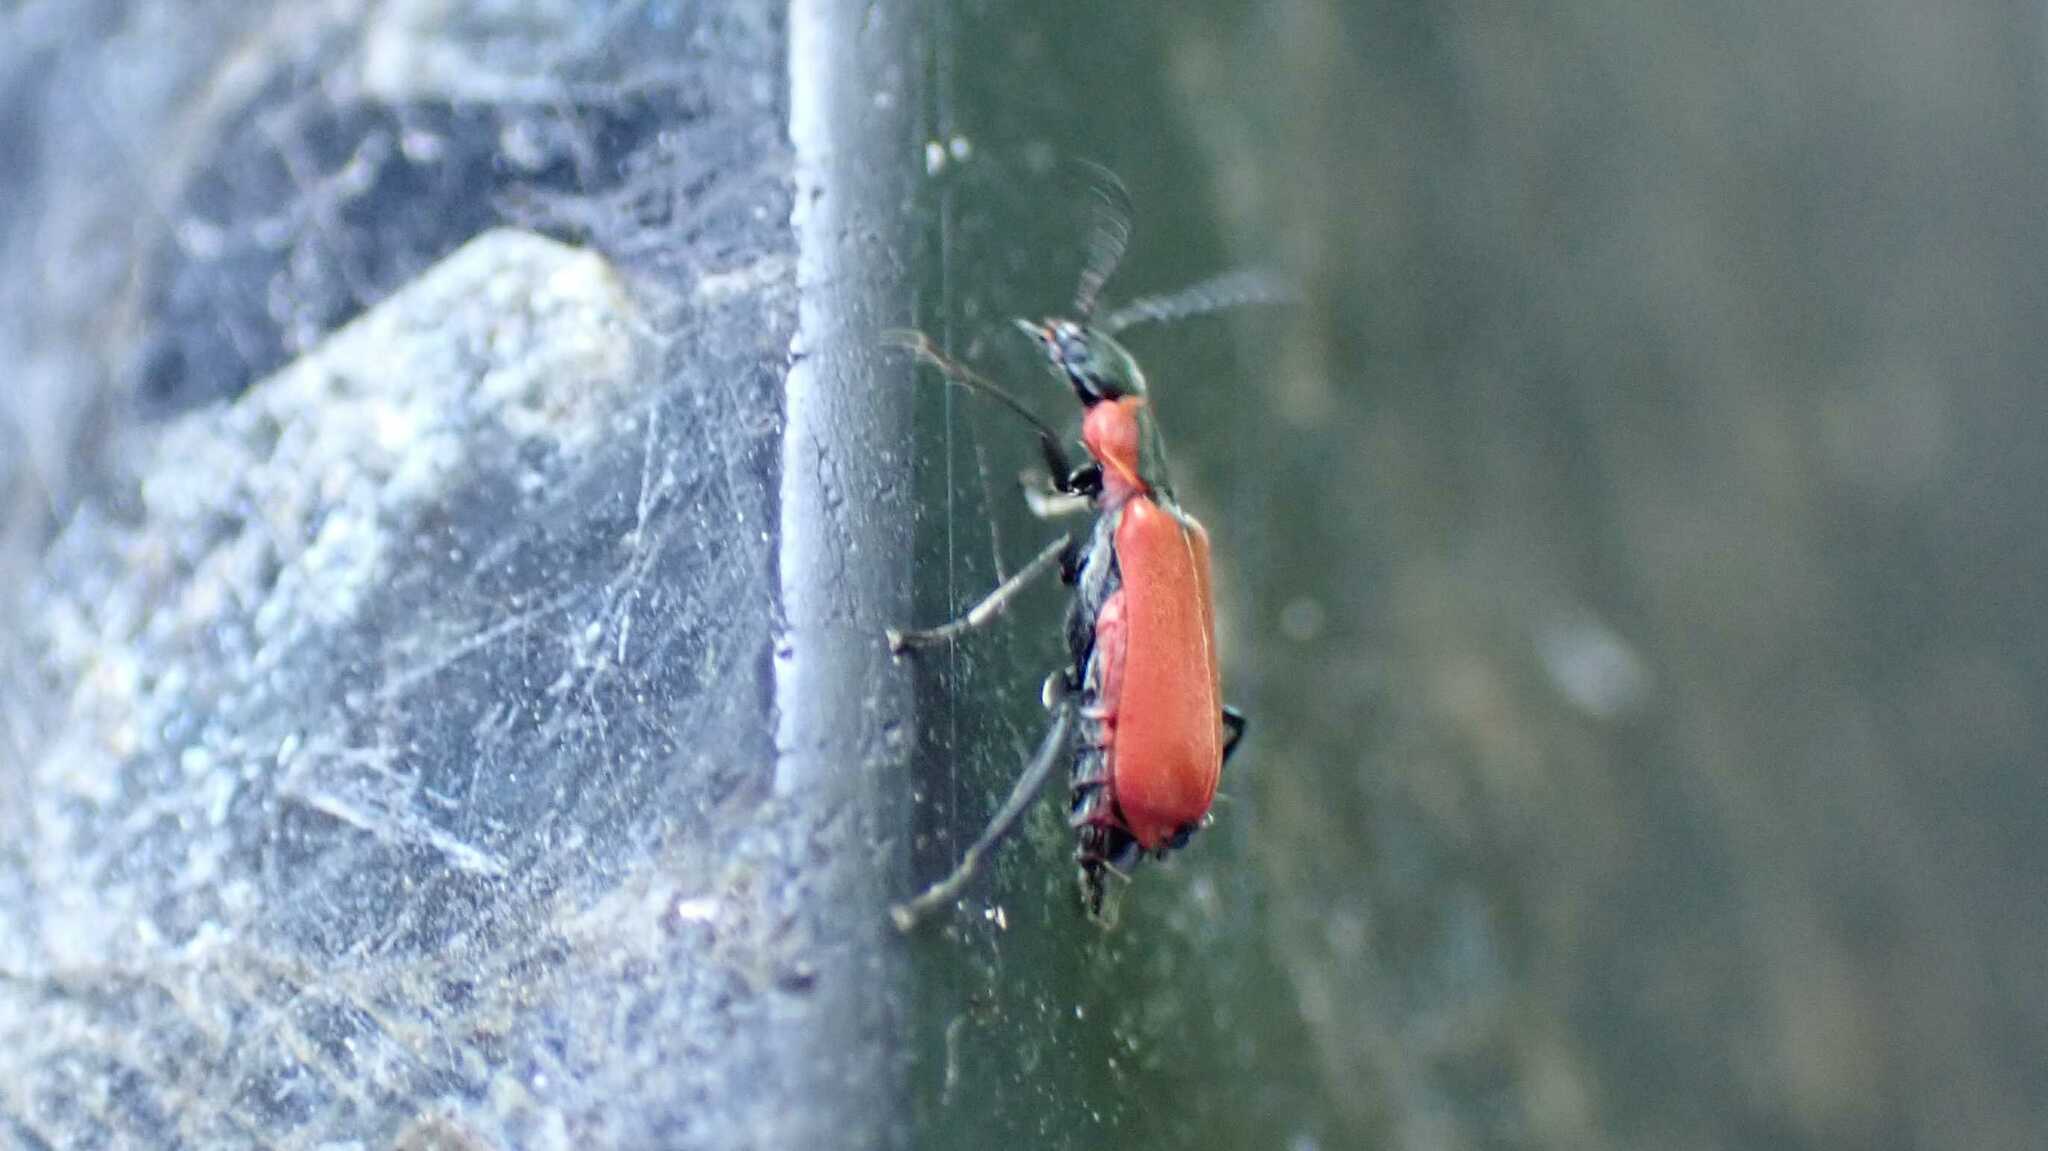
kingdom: Animalia
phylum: Arthropoda
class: Insecta
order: Coleoptera
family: Melyridae
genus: Anthocomus
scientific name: Anthocomus rufus
